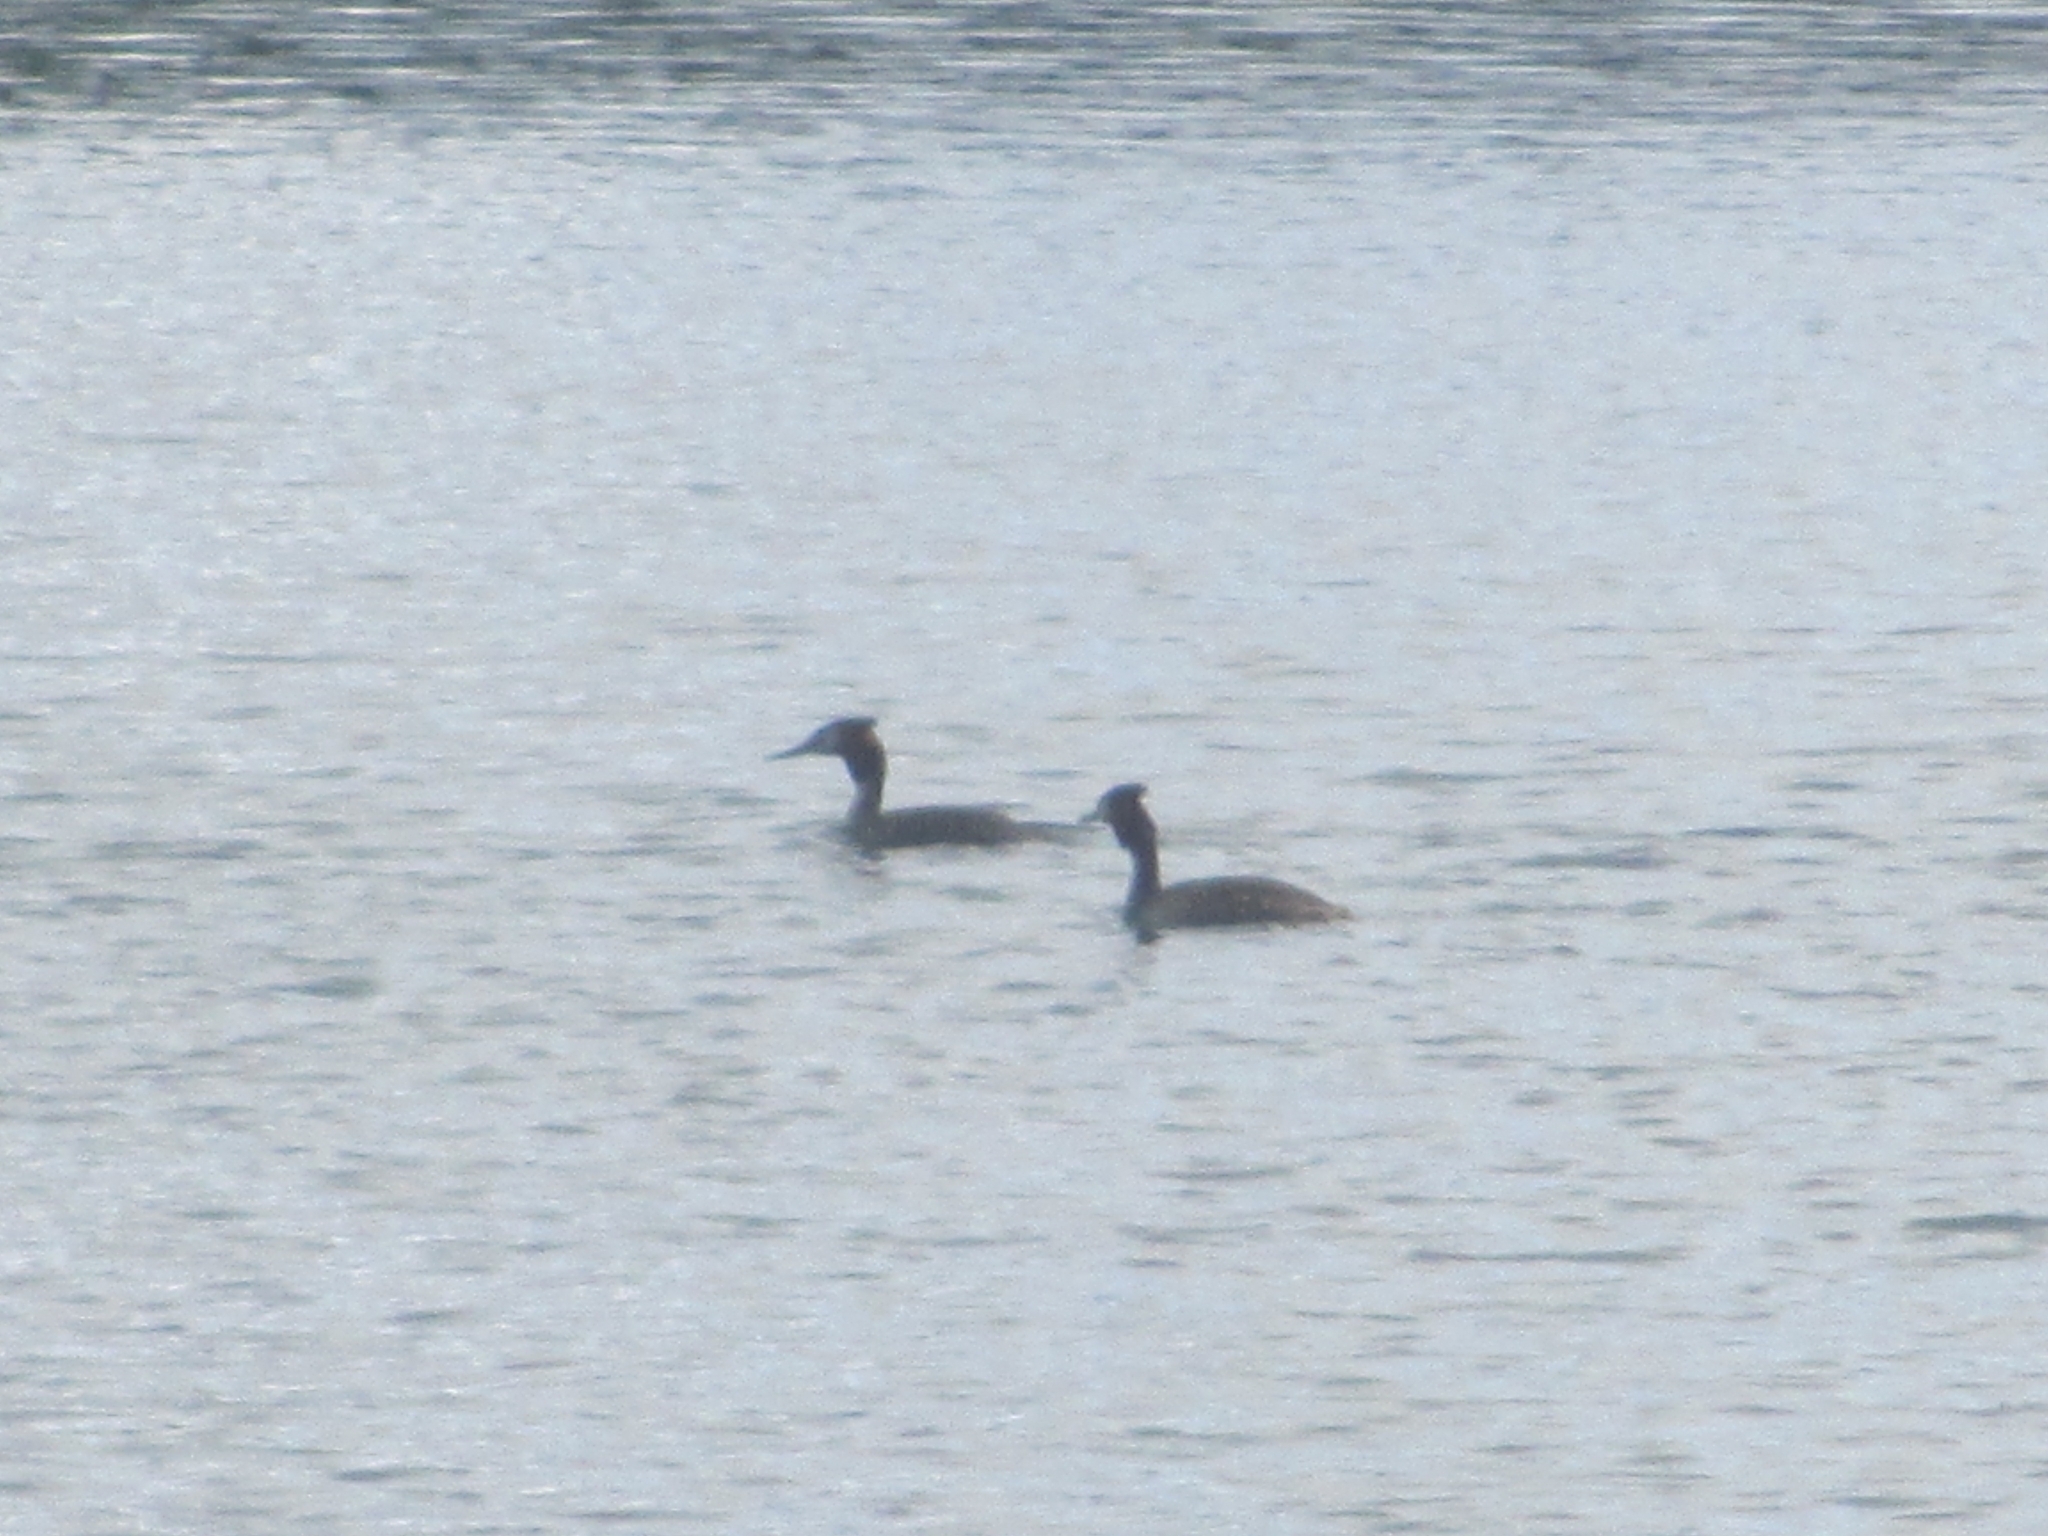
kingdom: Animalia
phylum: Chordata
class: Aves
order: Podicipediformes
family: Podicipedidae
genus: Podiceps
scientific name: Podiceps cristatus
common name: Great crested grebe
